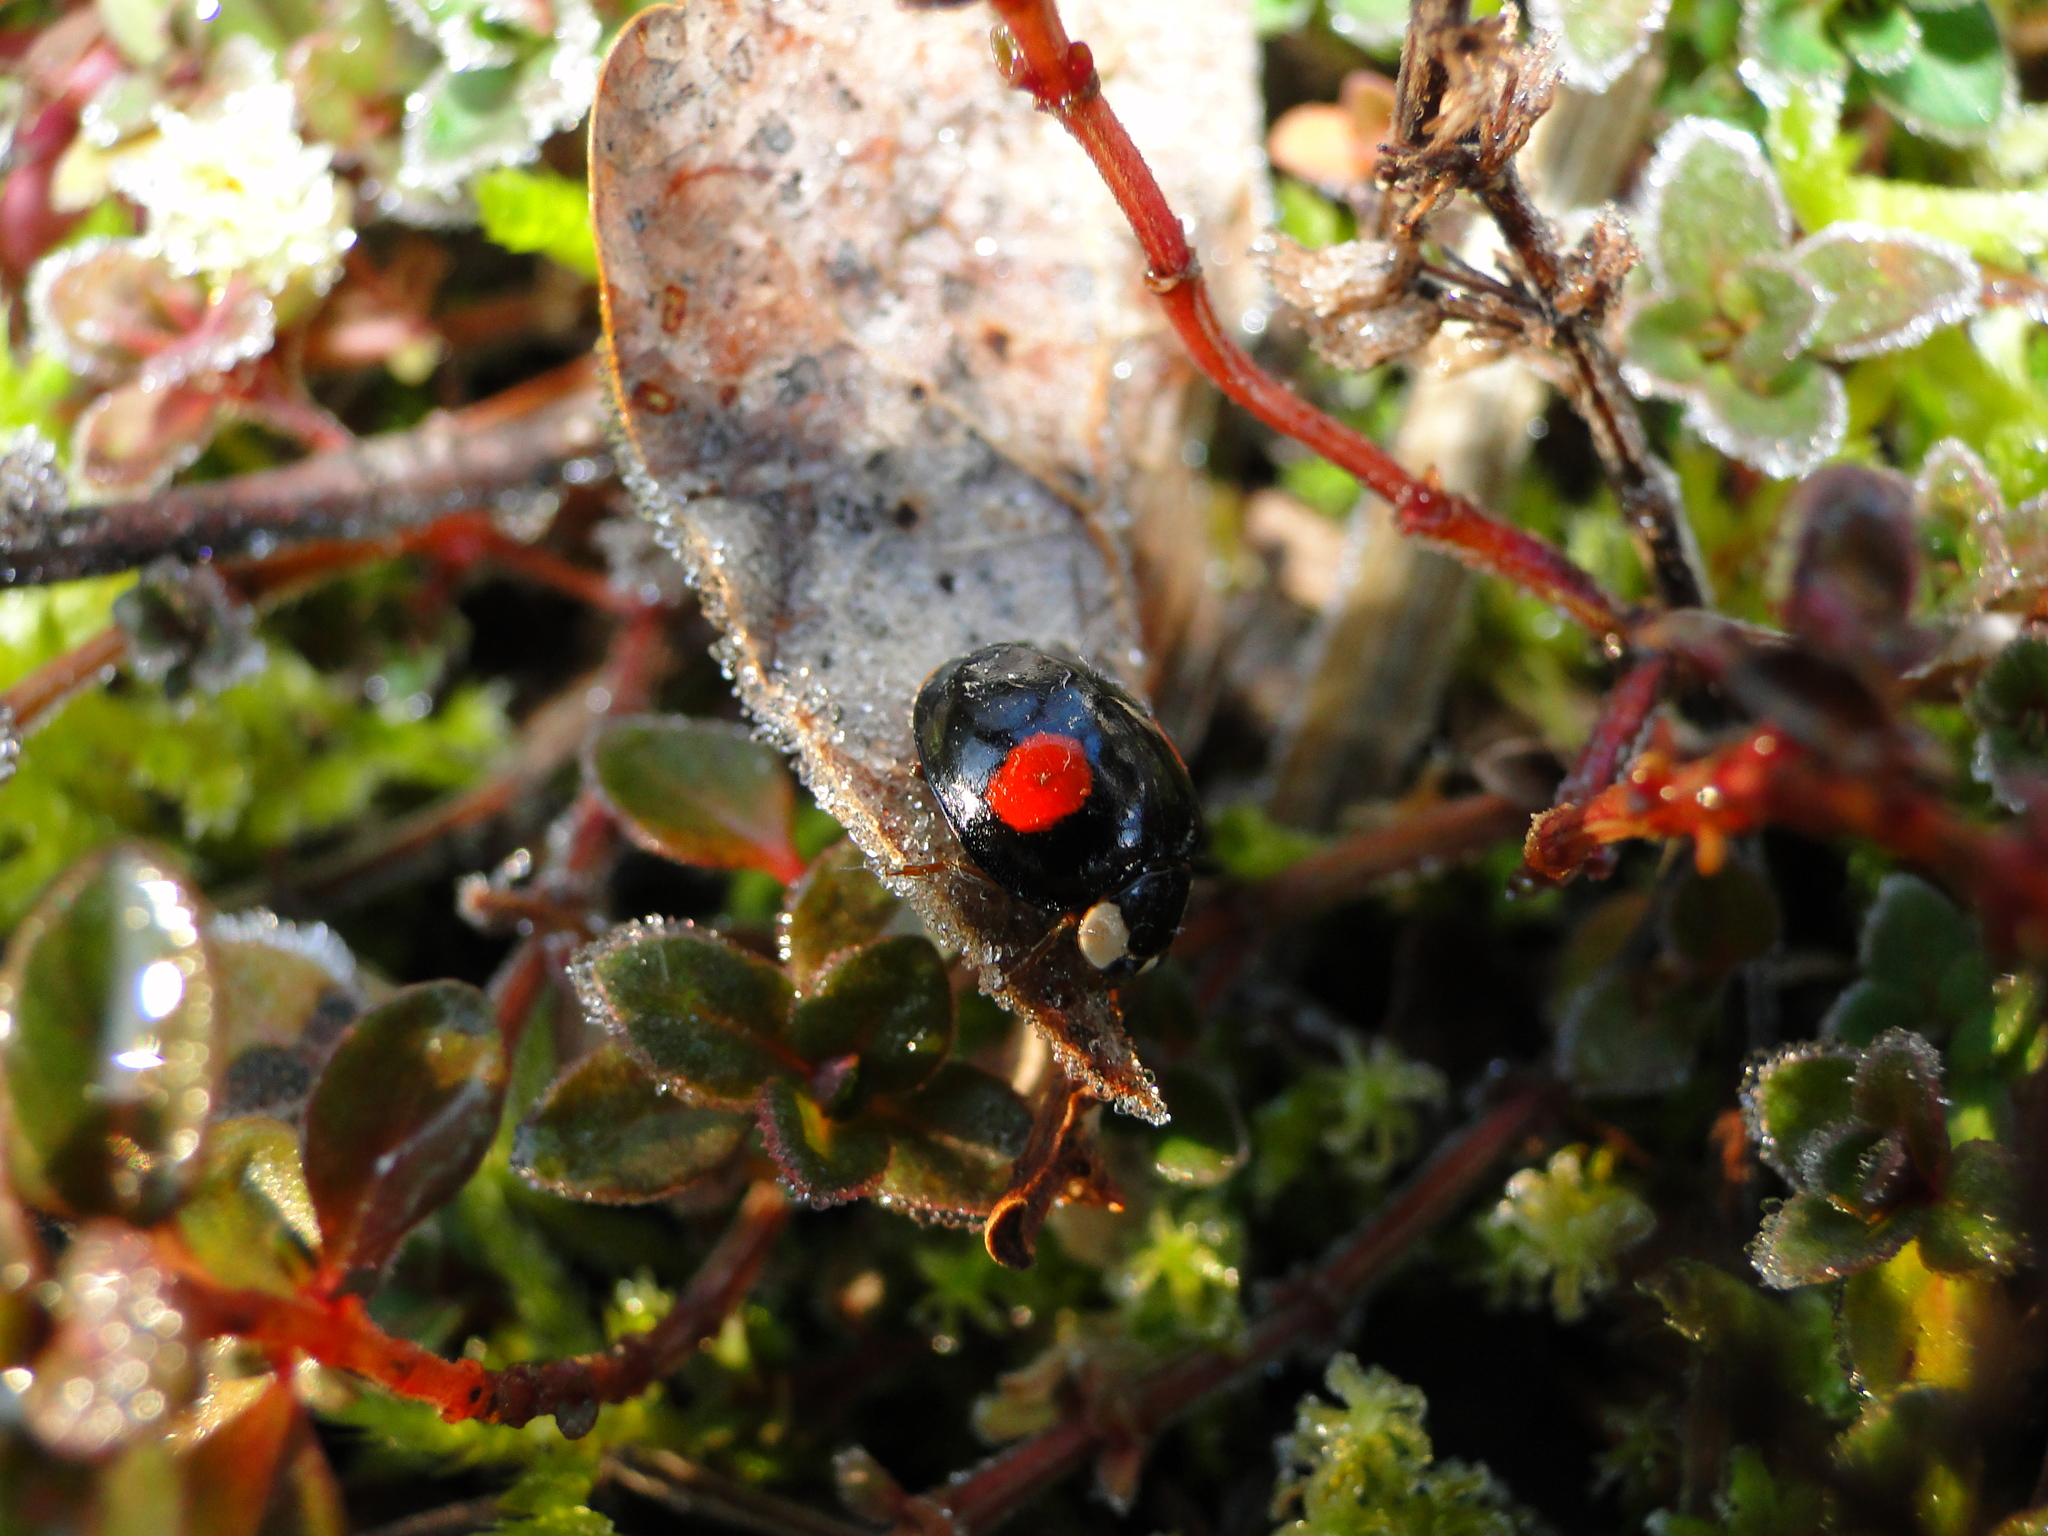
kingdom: Animalia
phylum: Arthropoda
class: Insecta
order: Coleoptera
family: Coccinellidae
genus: Harmonia
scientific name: Harmonia axyridis
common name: Harlequin ladybird
